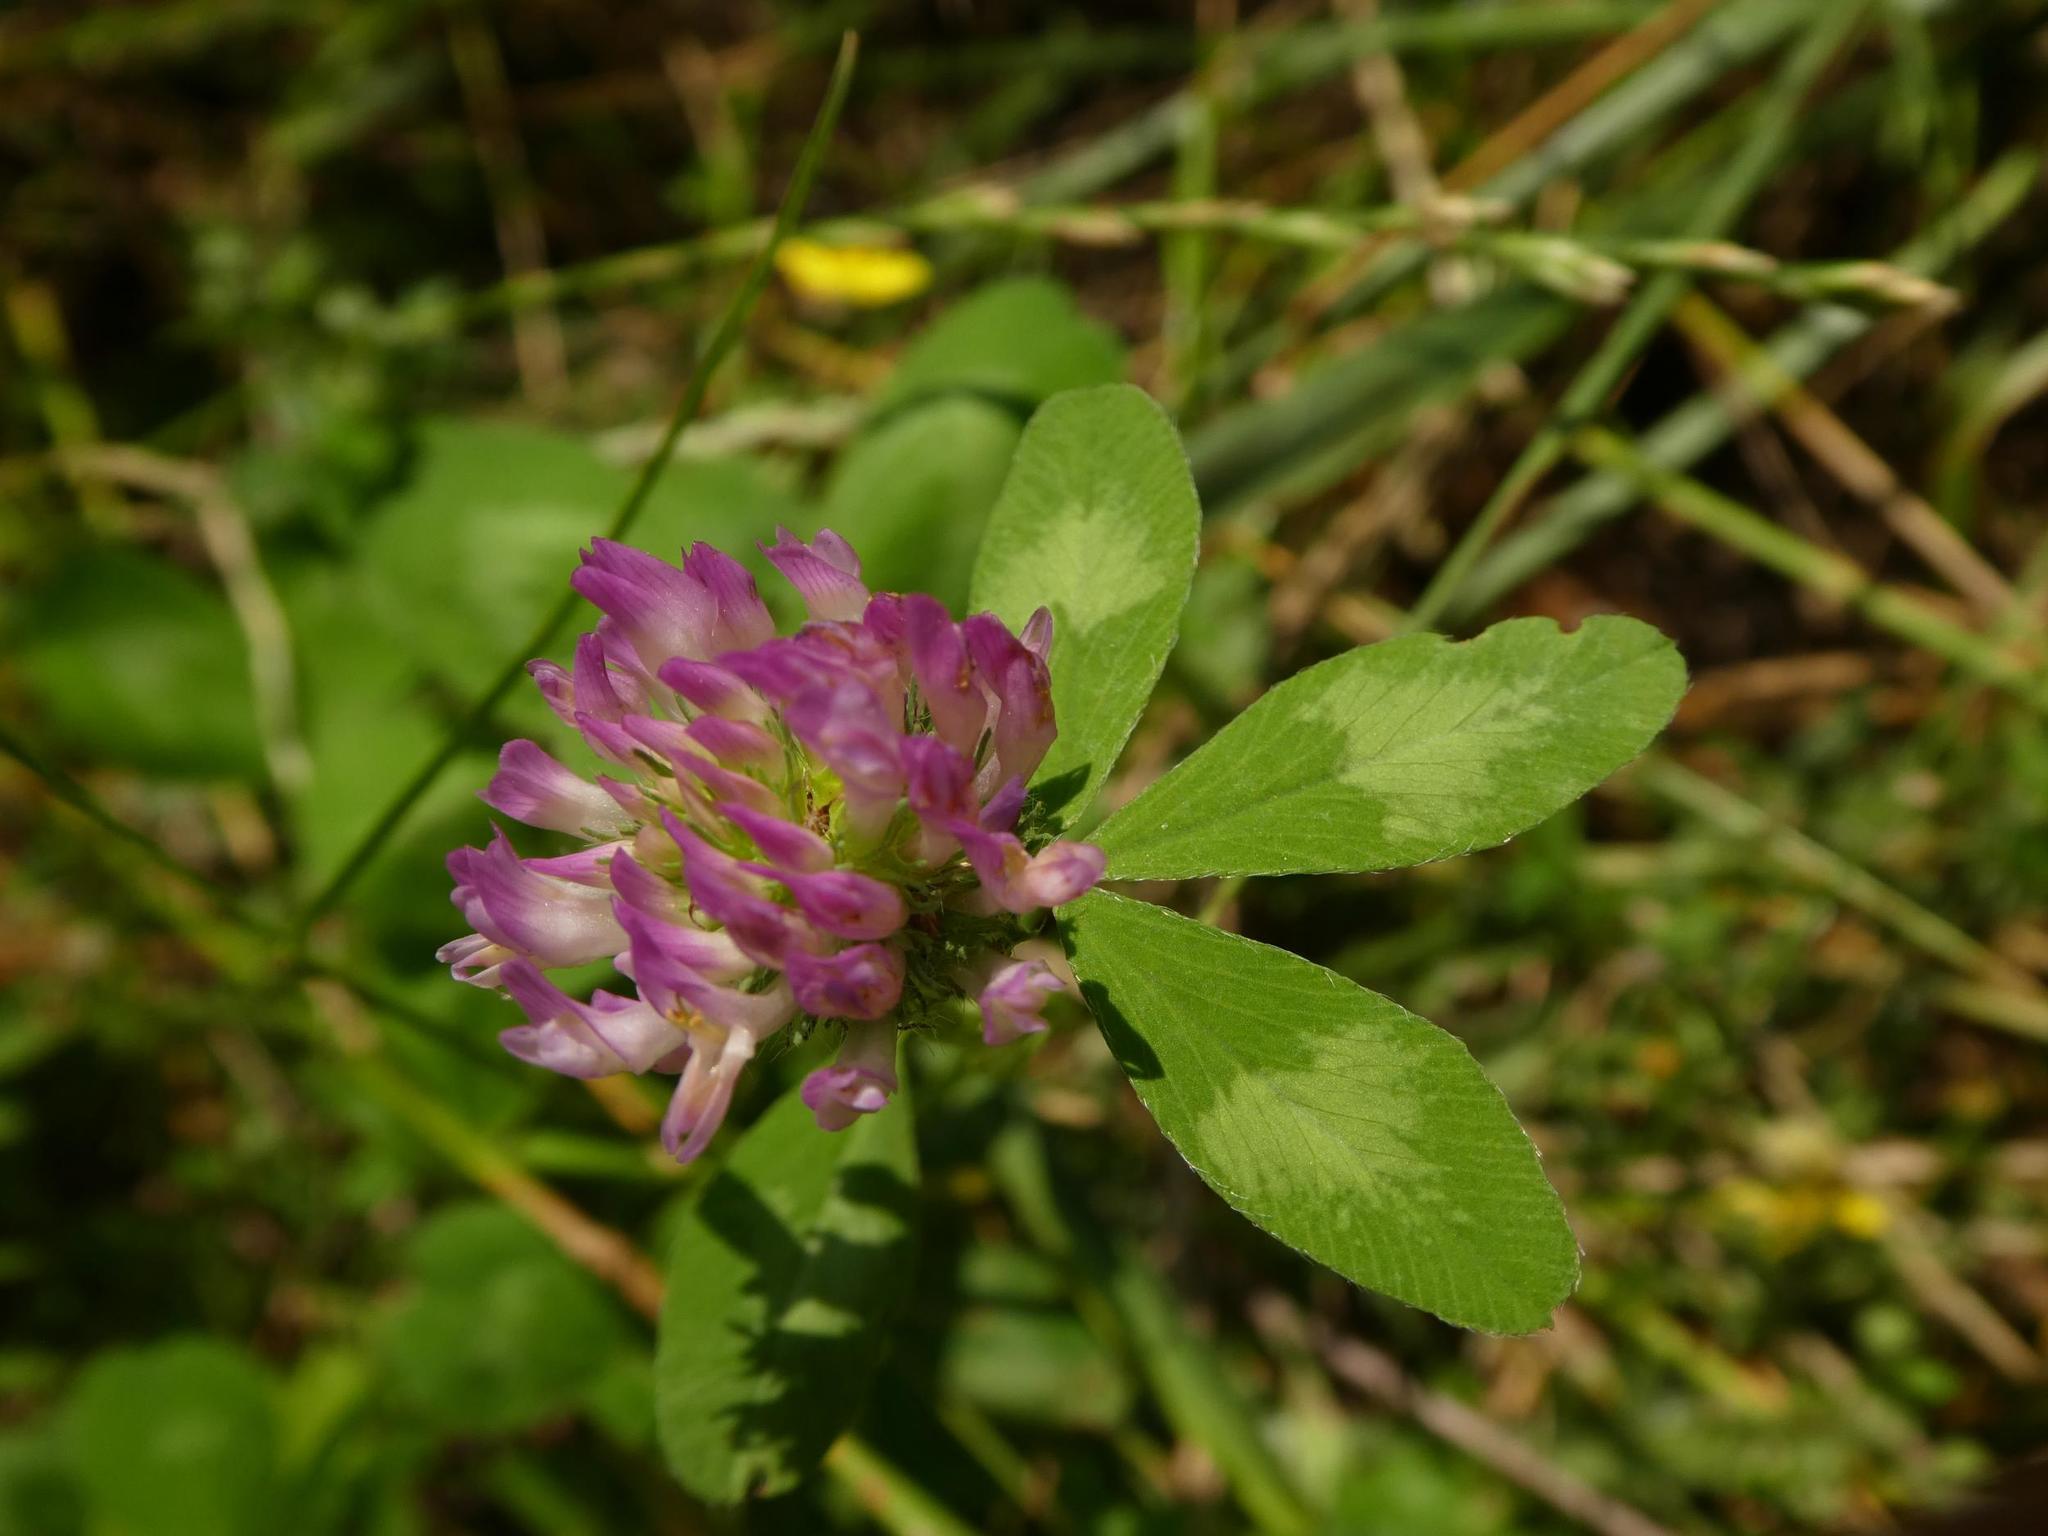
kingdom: Plantae
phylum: Tracheophyta
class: Magnoliopsida
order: Fabales
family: Fabaceae
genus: Trifolium
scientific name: Trifolium pratense
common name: Red clover
